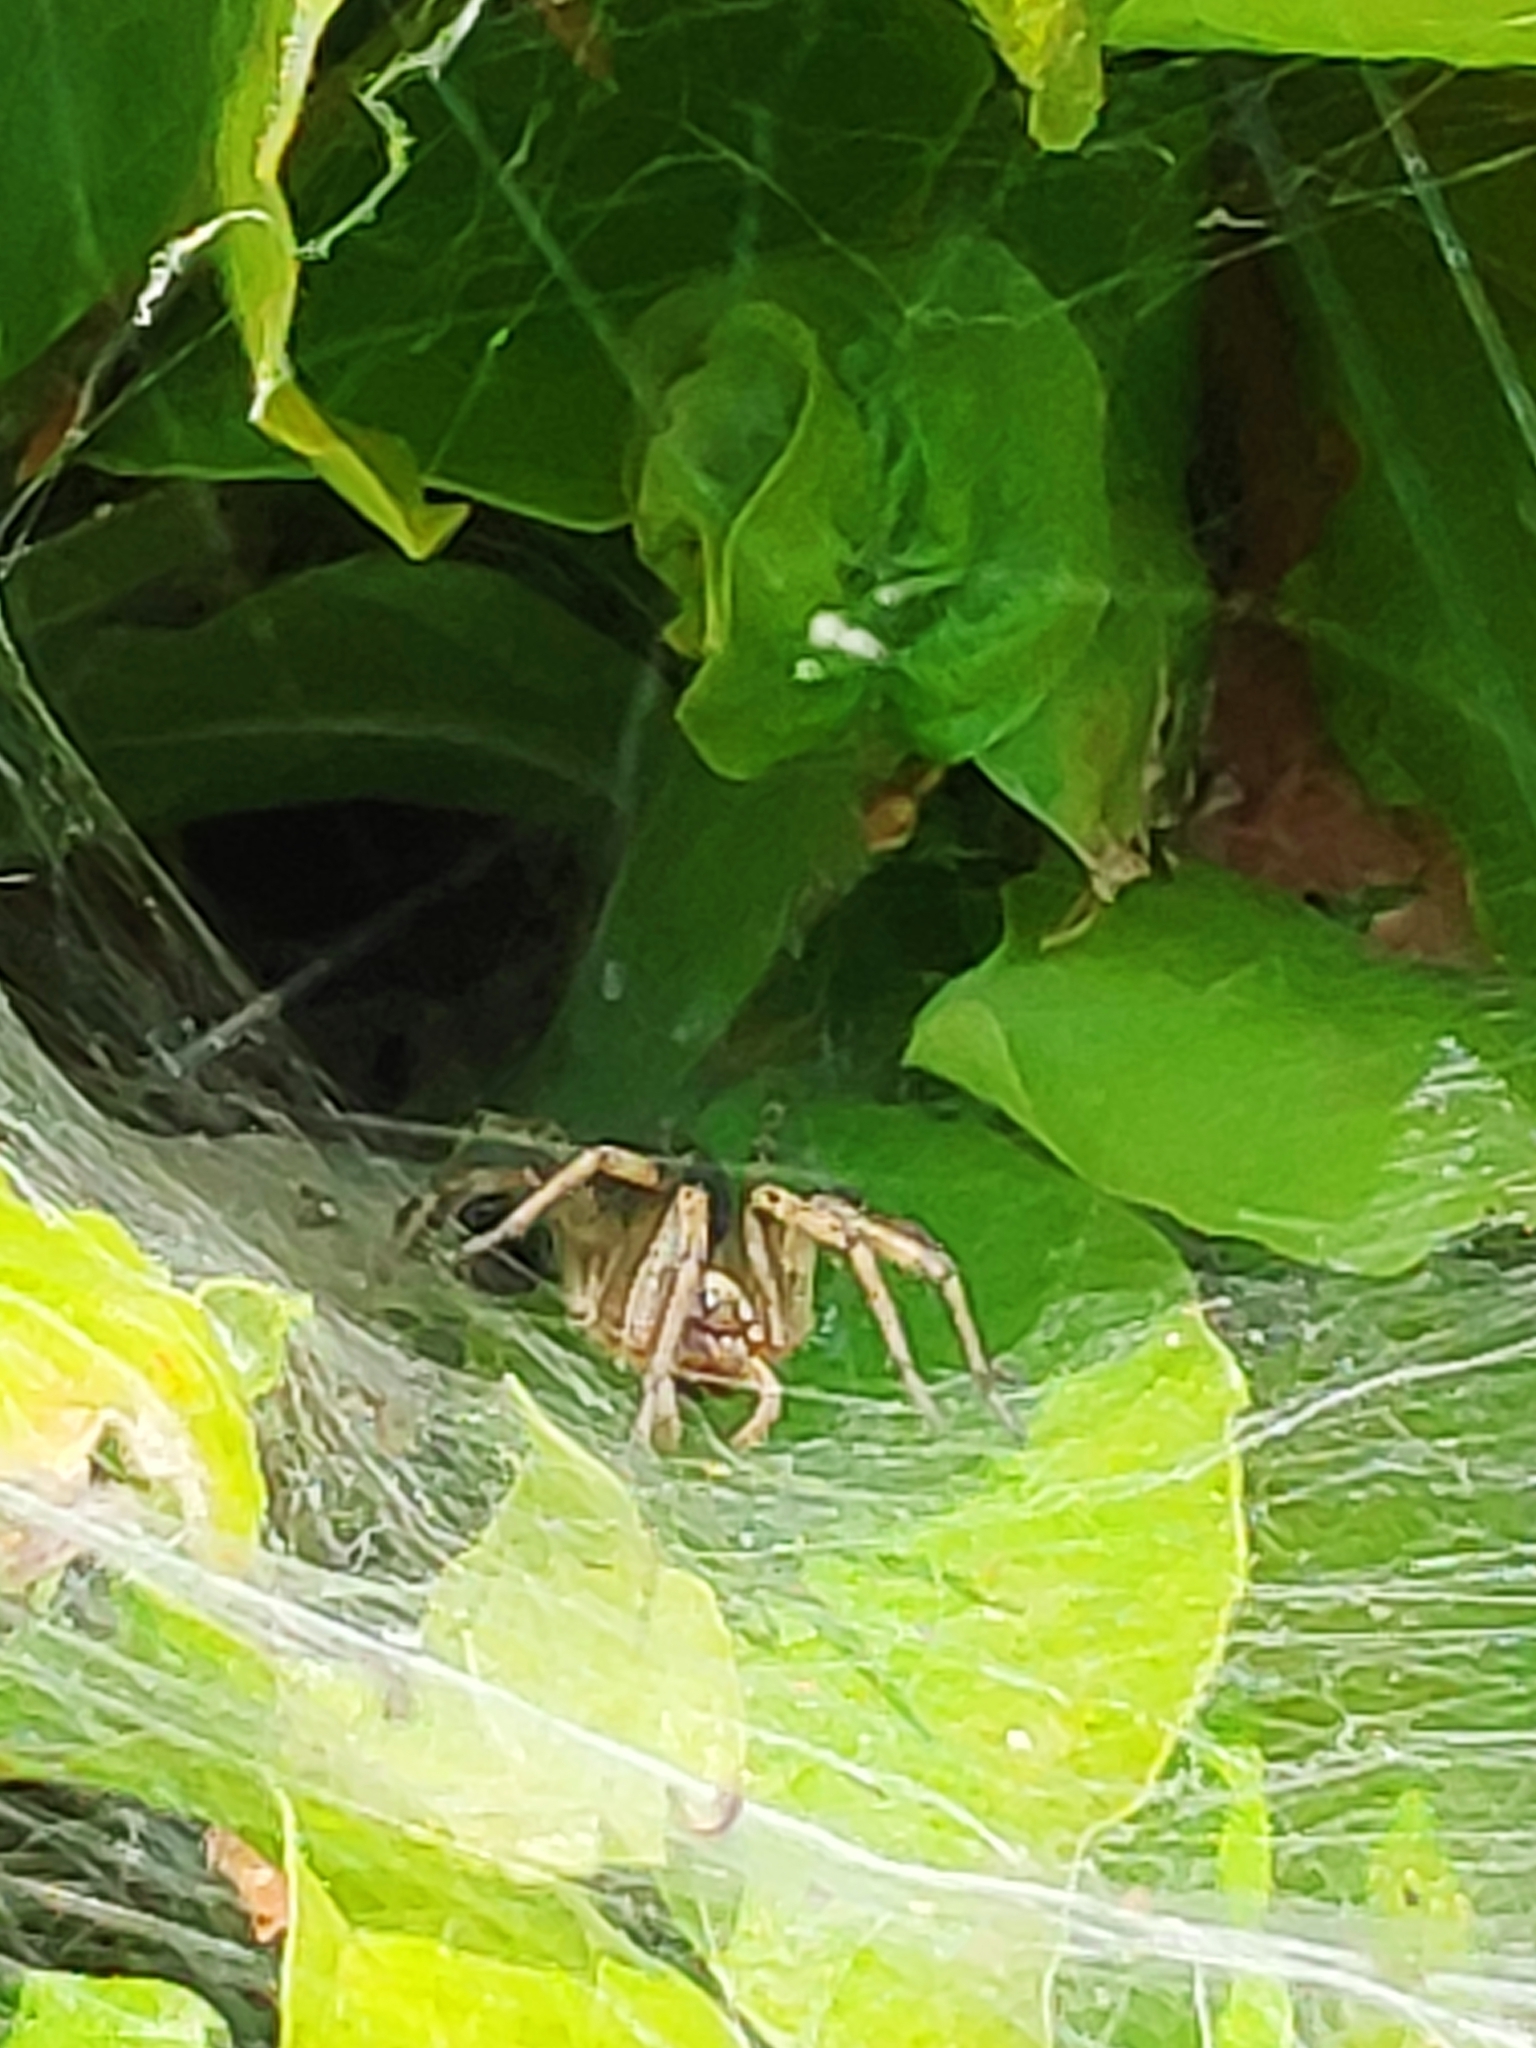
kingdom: Animalia
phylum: Arthropoda
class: Arachnida
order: Araneae
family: Agelenidae
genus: Agelena
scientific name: Agelena labyrinthica
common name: Labyrinth spider
